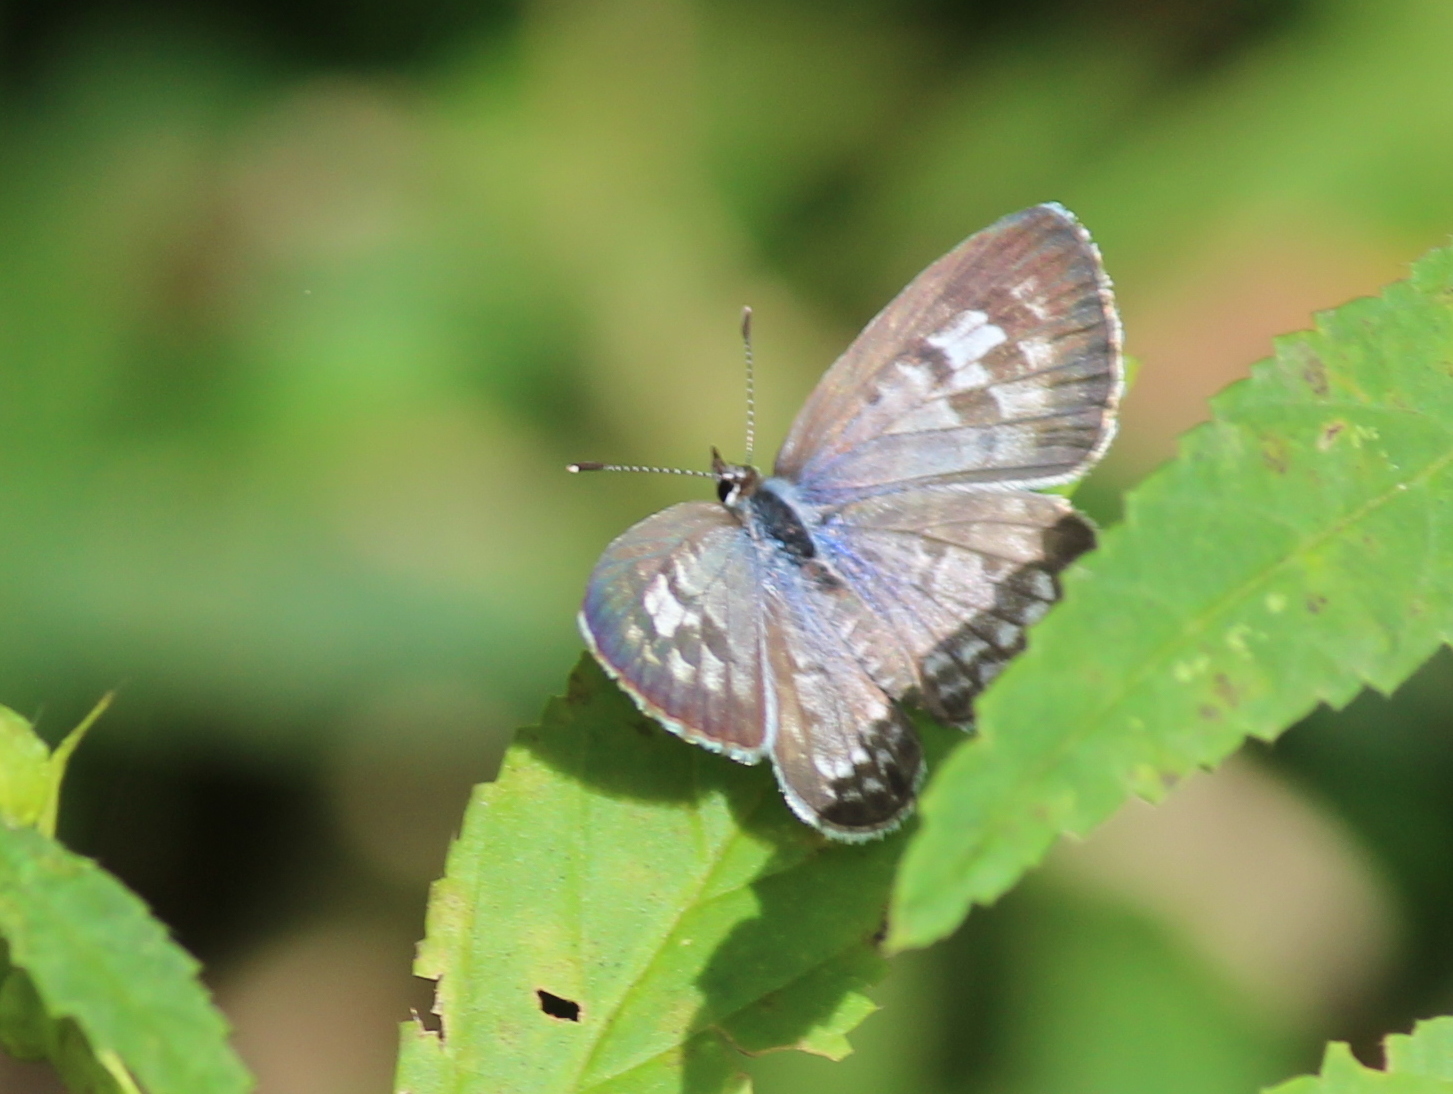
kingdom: Animalia
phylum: Arthropoda
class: Insecta
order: Lepidoptera
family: Lycaenidae
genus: Leptotes
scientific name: Leptotes plinius
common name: Zebra blue
